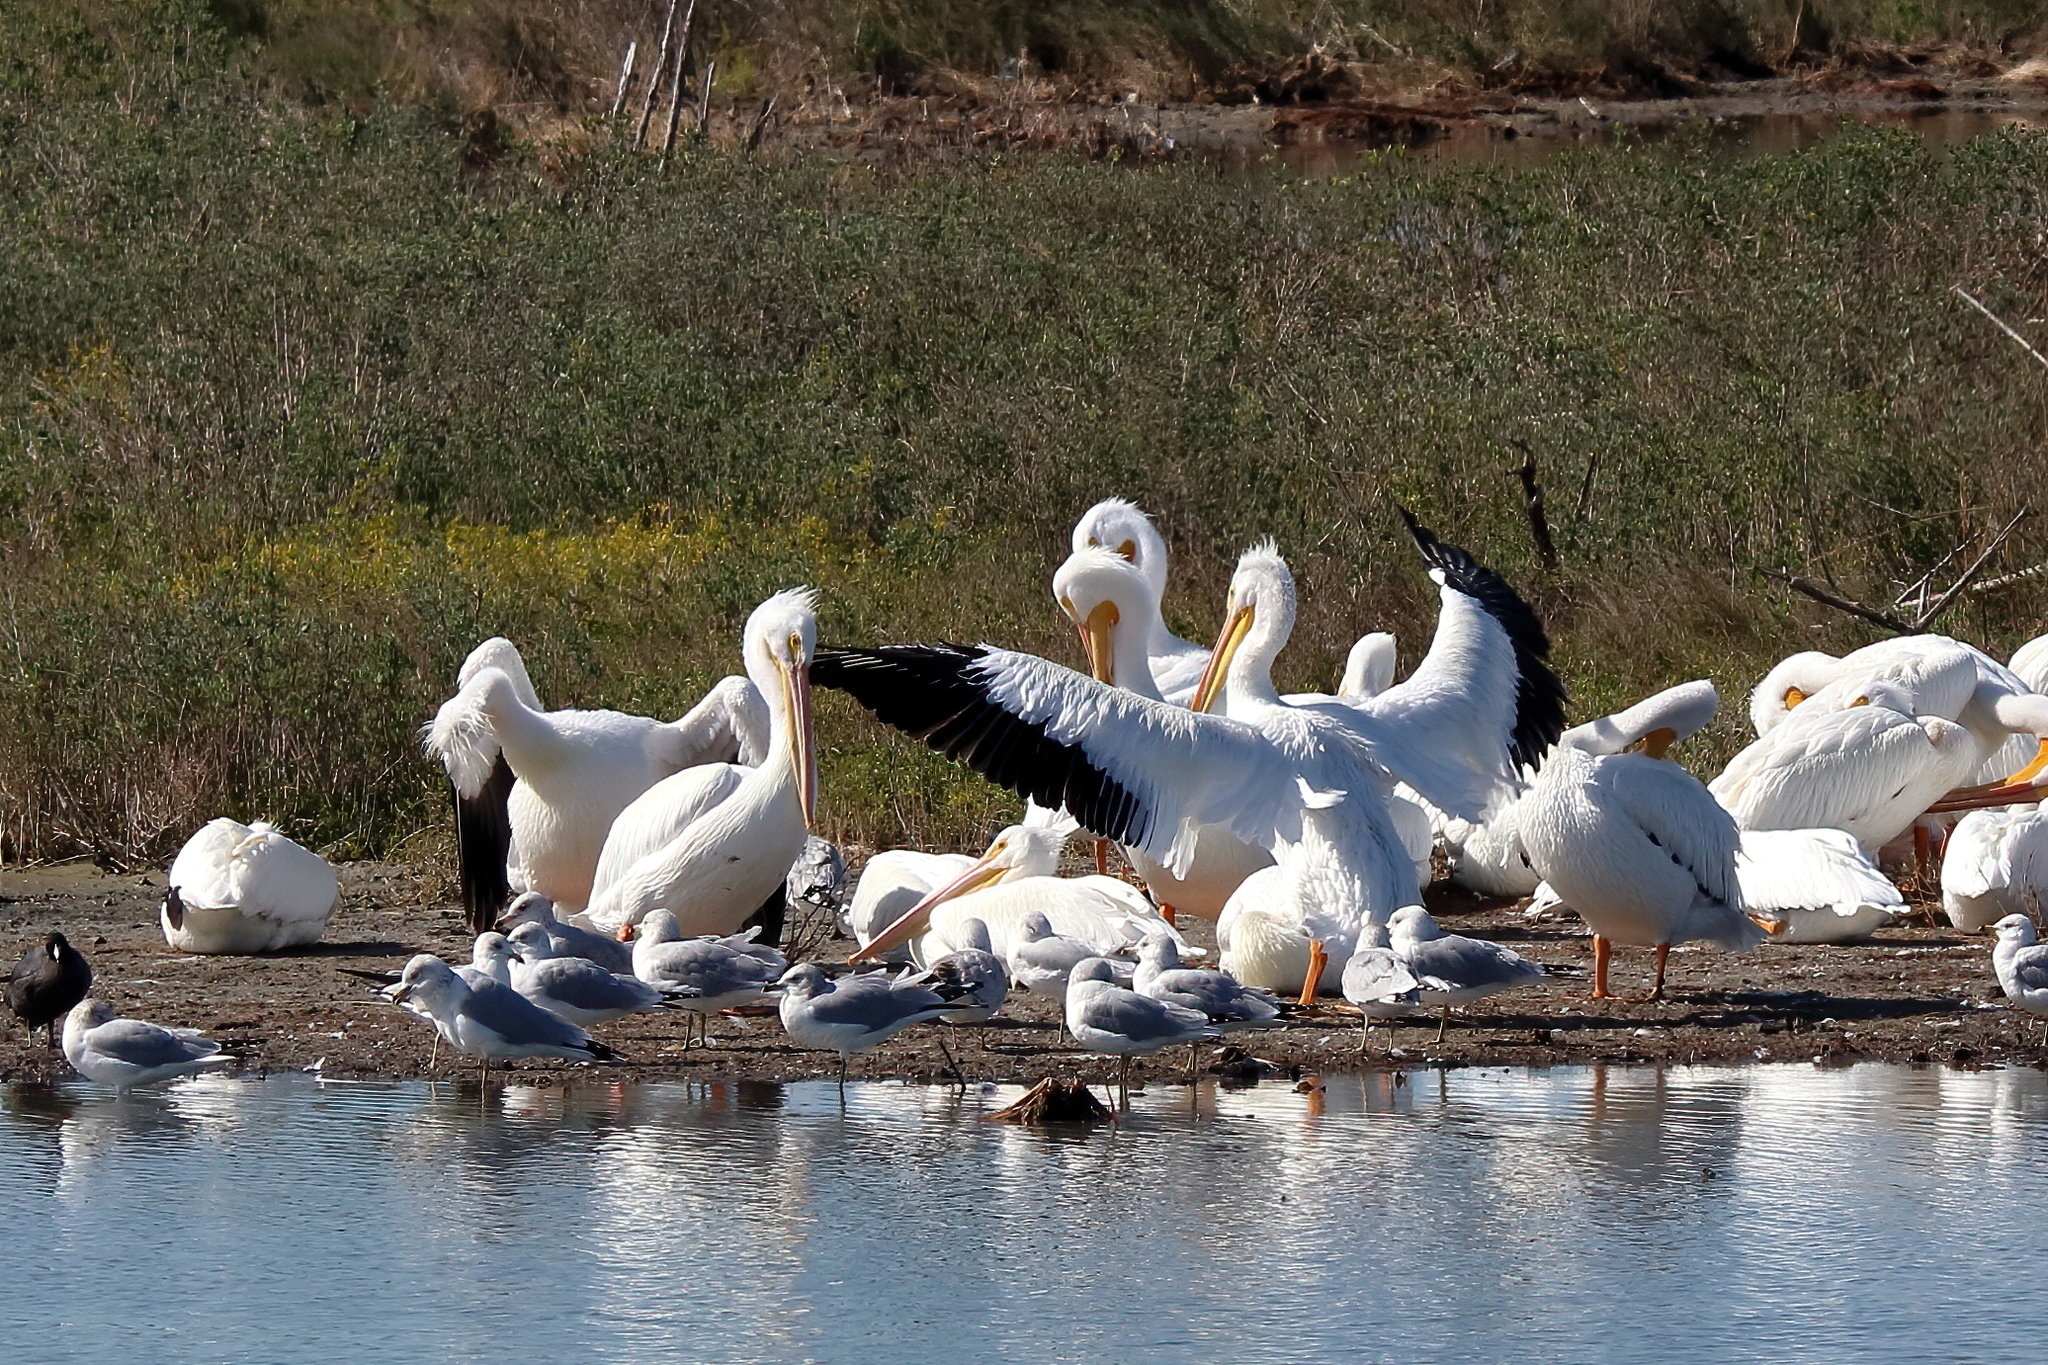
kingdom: Animalia
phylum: Chordata
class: Aves
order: Pelecaniformes
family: Pelecanidae
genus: Pelecanus
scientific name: Pelecanus erythrorhynchos
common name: American white pelican
